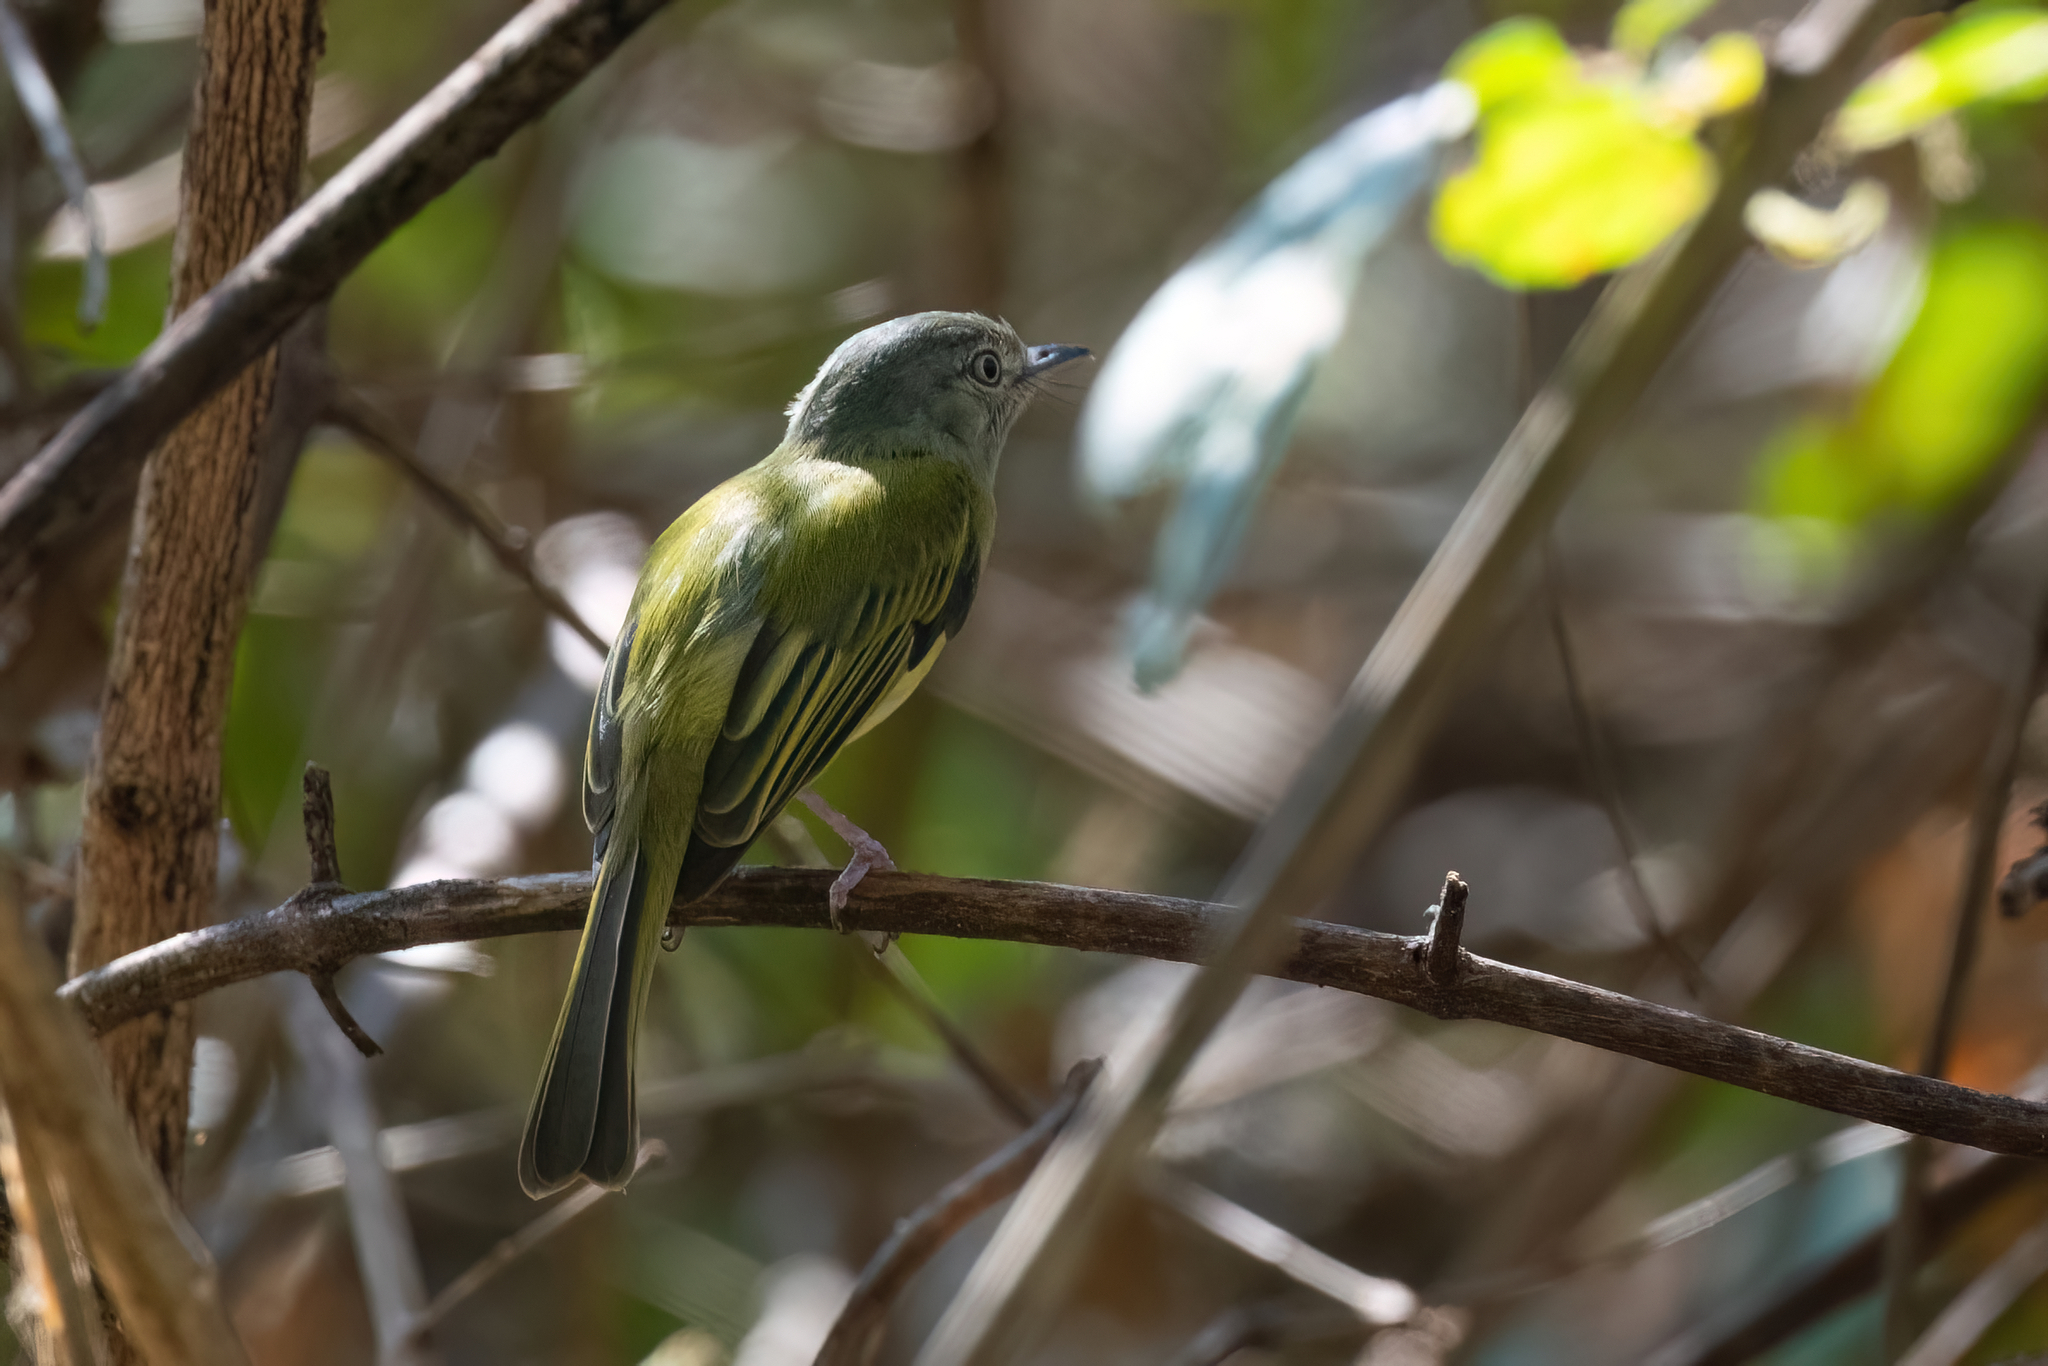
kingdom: Animalia
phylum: Chordata
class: Aves
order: Passeriformes
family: Tyrannidae
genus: Tolmomyias
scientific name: Tolmomyias sulphurescens
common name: Yellow-olive flycatcher
